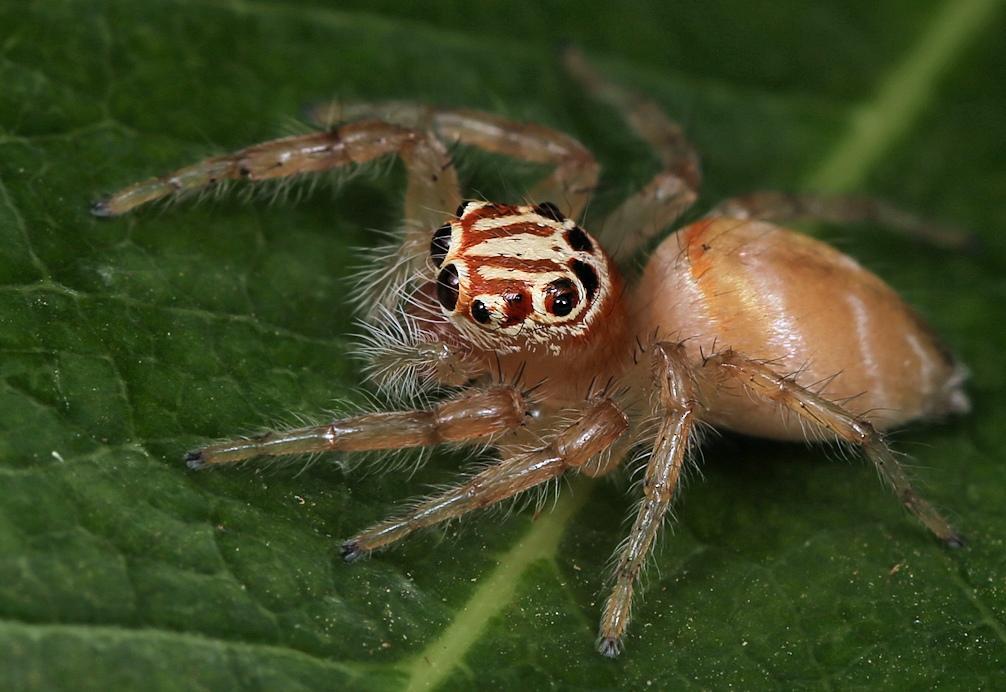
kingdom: Animalia
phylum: Arthropoda
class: Arachnida
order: Araneae
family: Salticidae
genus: Brancus
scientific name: Brancus mustelus
